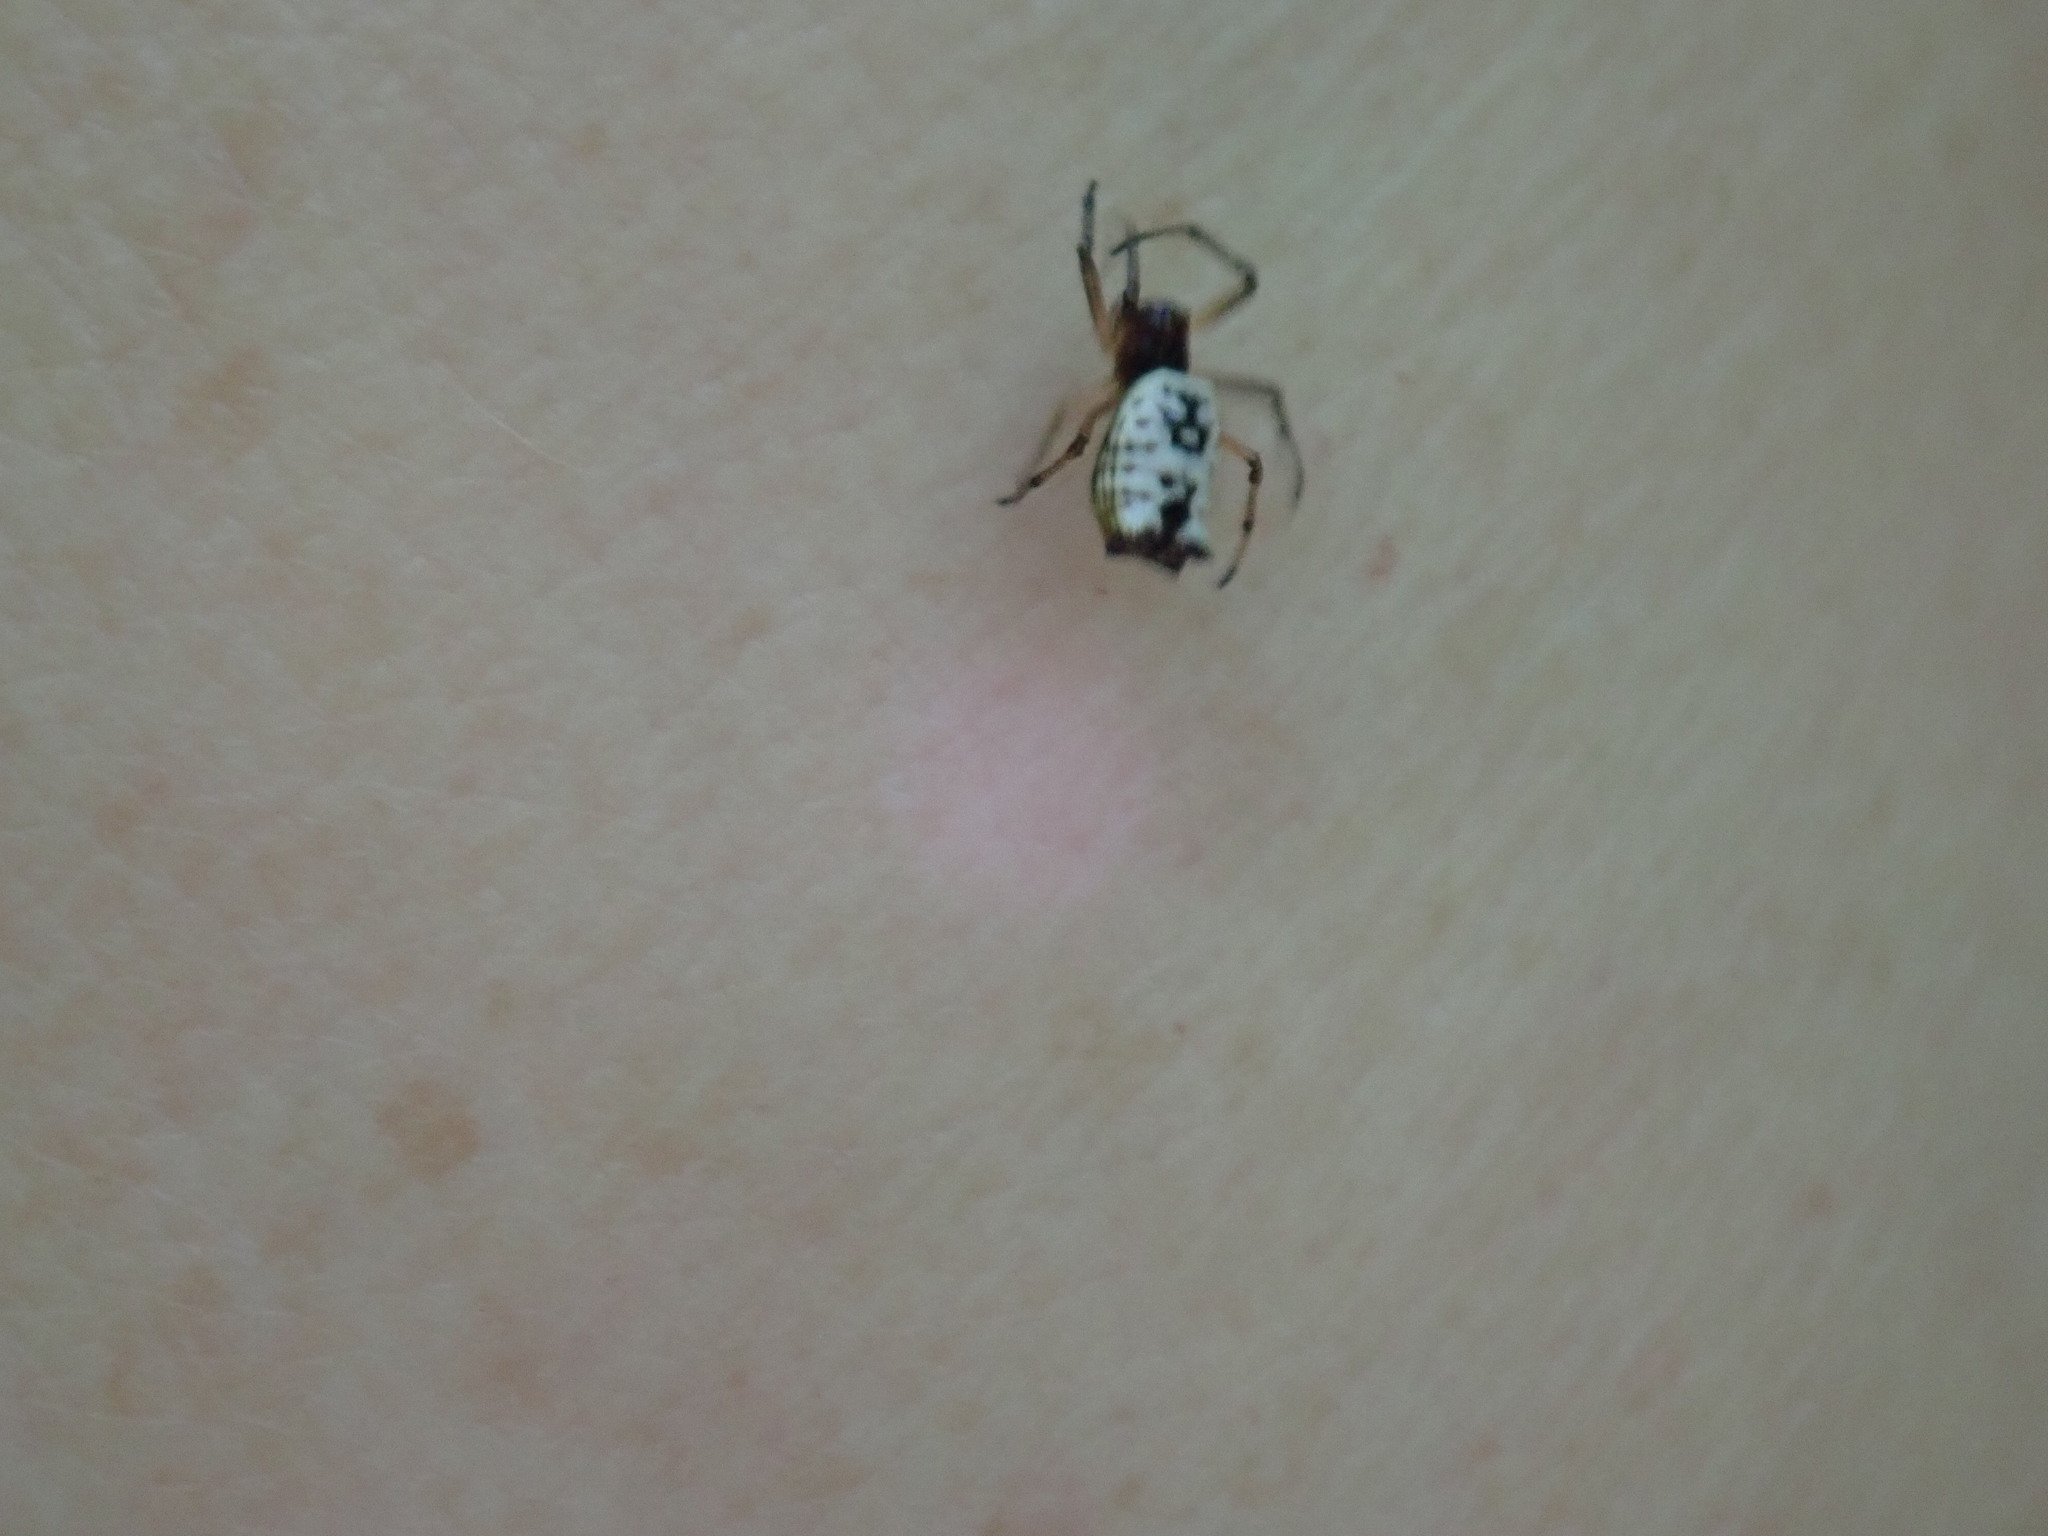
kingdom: Animalia
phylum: Arthropoda
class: Arachnida
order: Araneae
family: Araneidae
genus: Micrathena
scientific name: Micrathena mitrata
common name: Orb weavers
